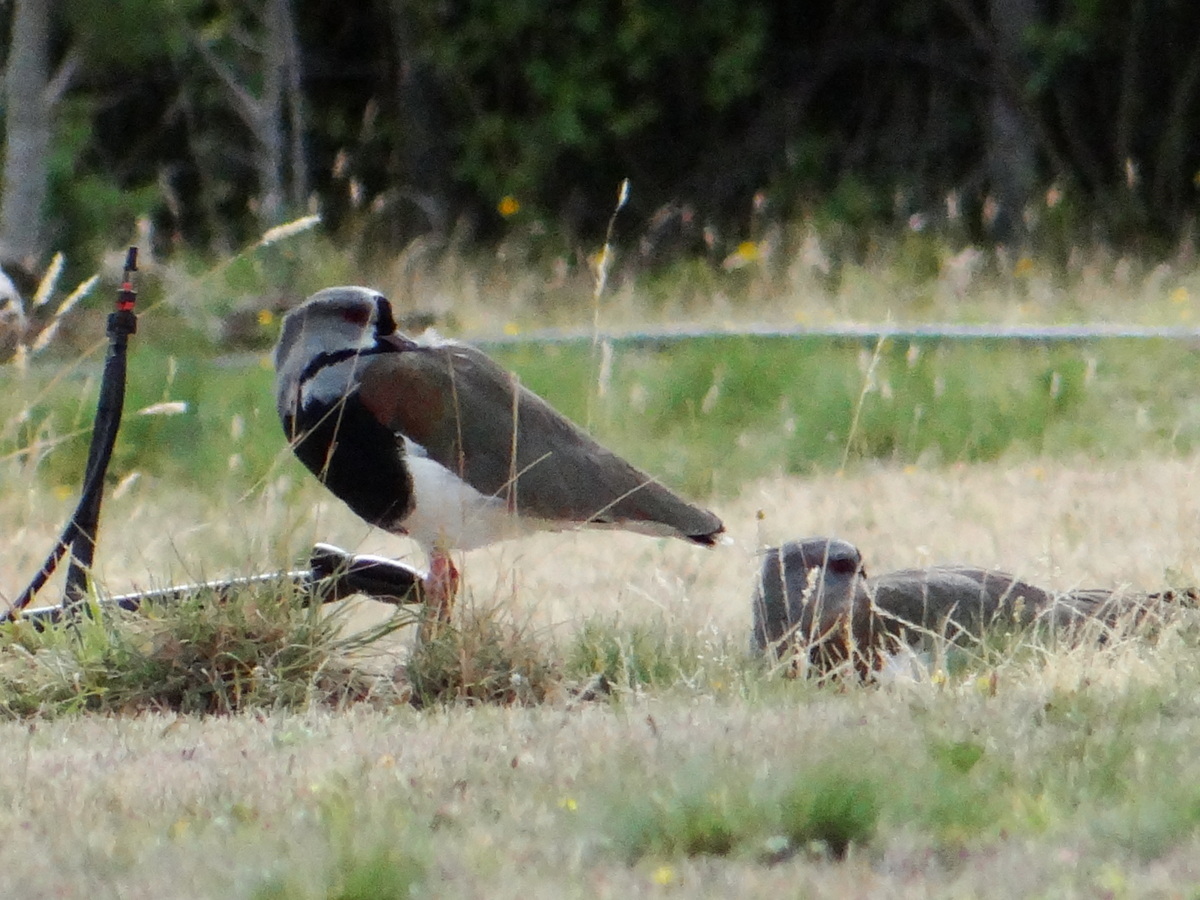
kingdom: Animalia
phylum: Chordata
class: Aves
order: Charadriiformes
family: Charadriidae
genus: Vanellus
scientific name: Vanellus chilensis
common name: Southern lapwing
